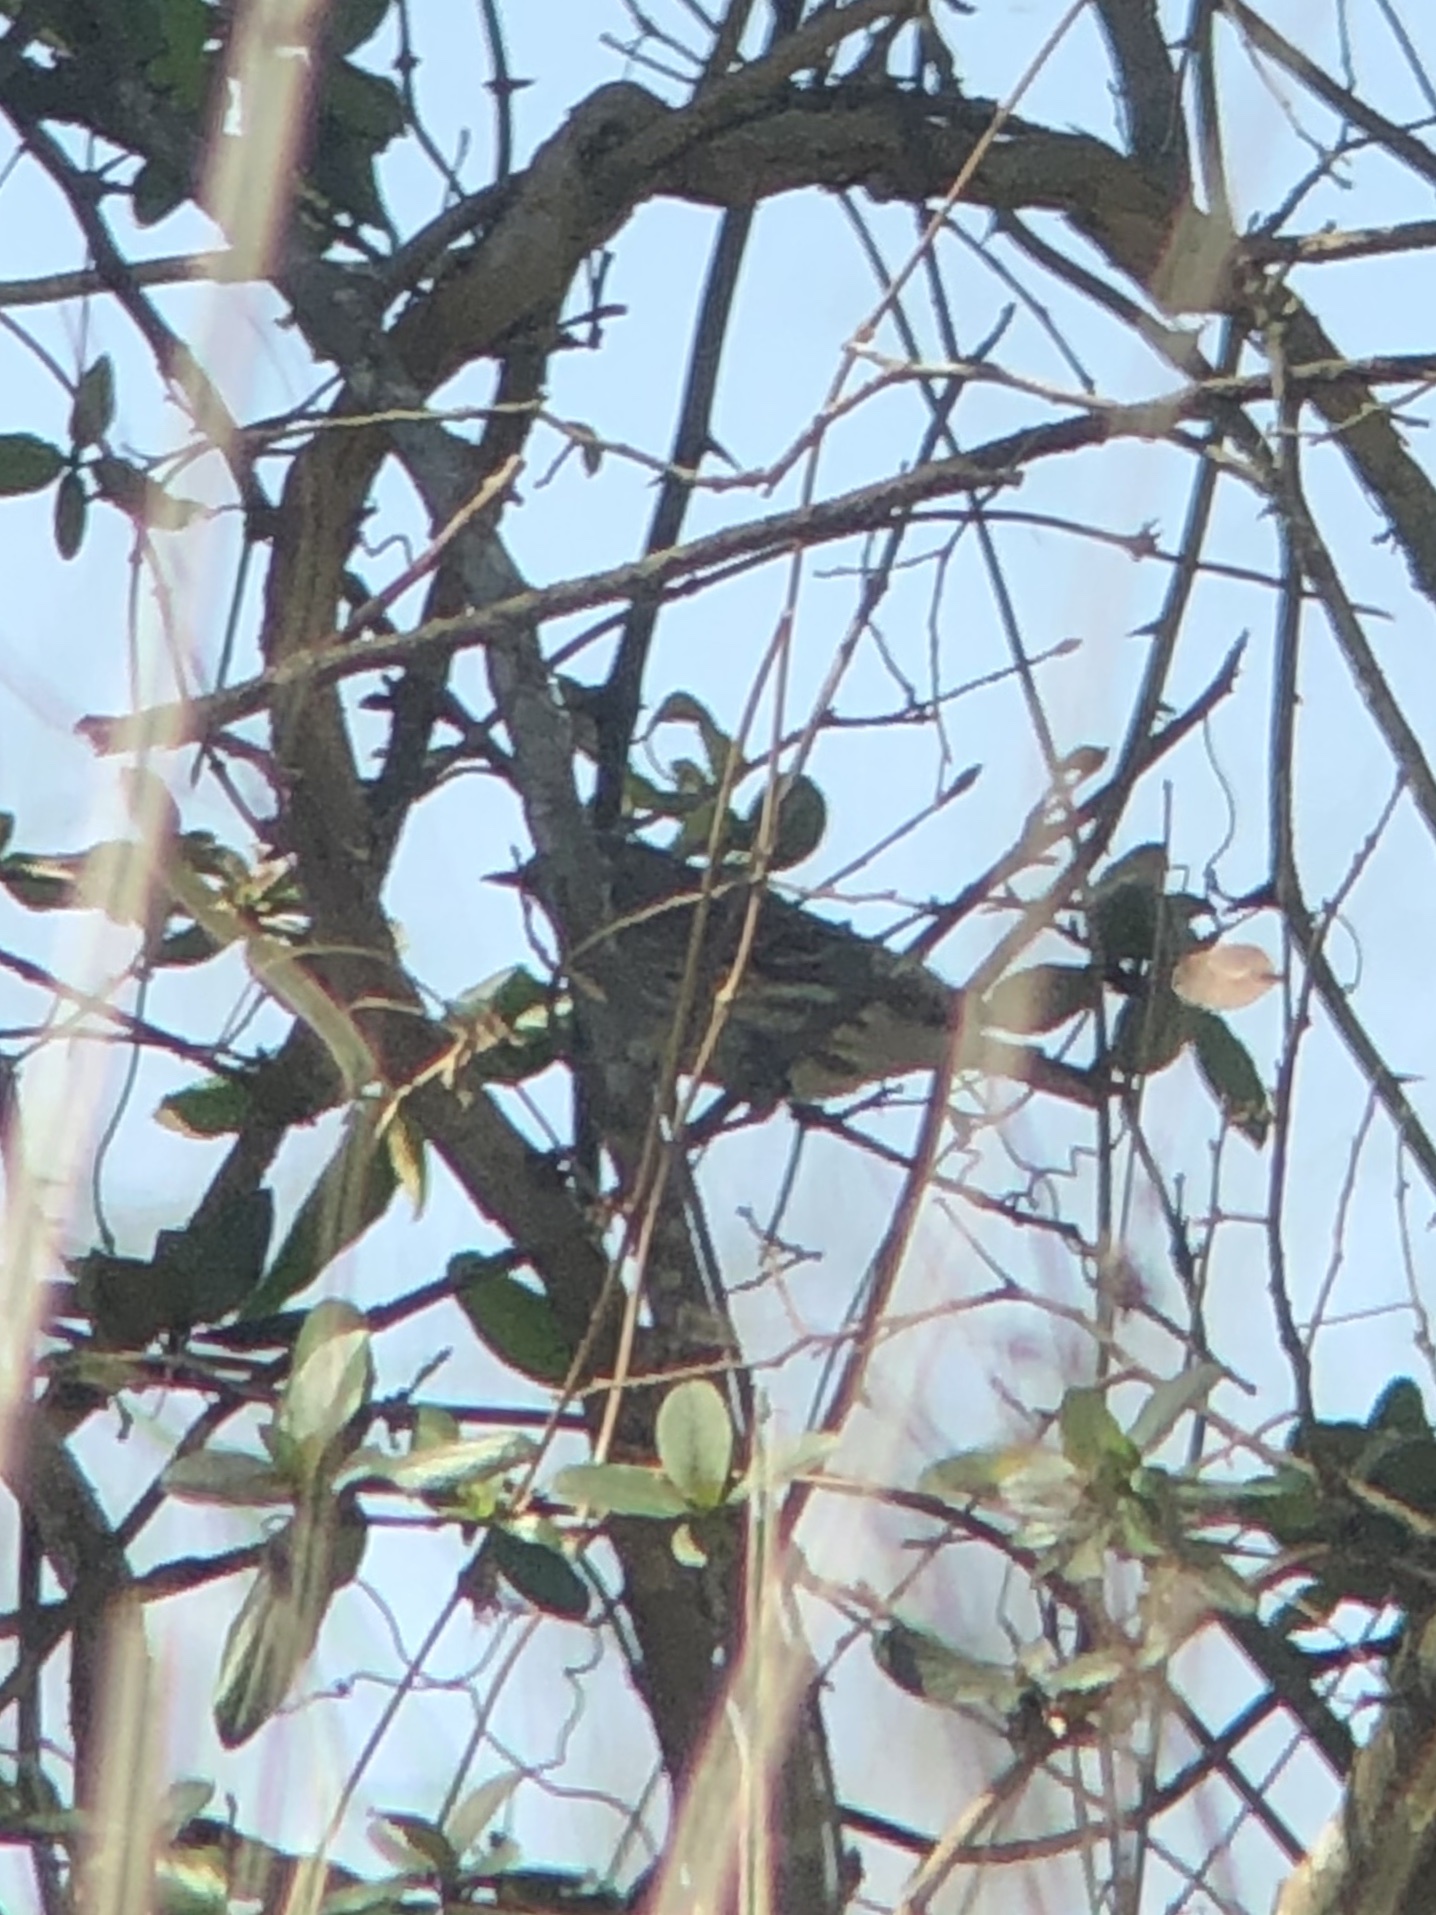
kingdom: Animalia
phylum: Chordata
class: Aves
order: Passeriformes
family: Parulidae
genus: Setophaga
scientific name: Setophaga coronata
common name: Myrtle warbler
